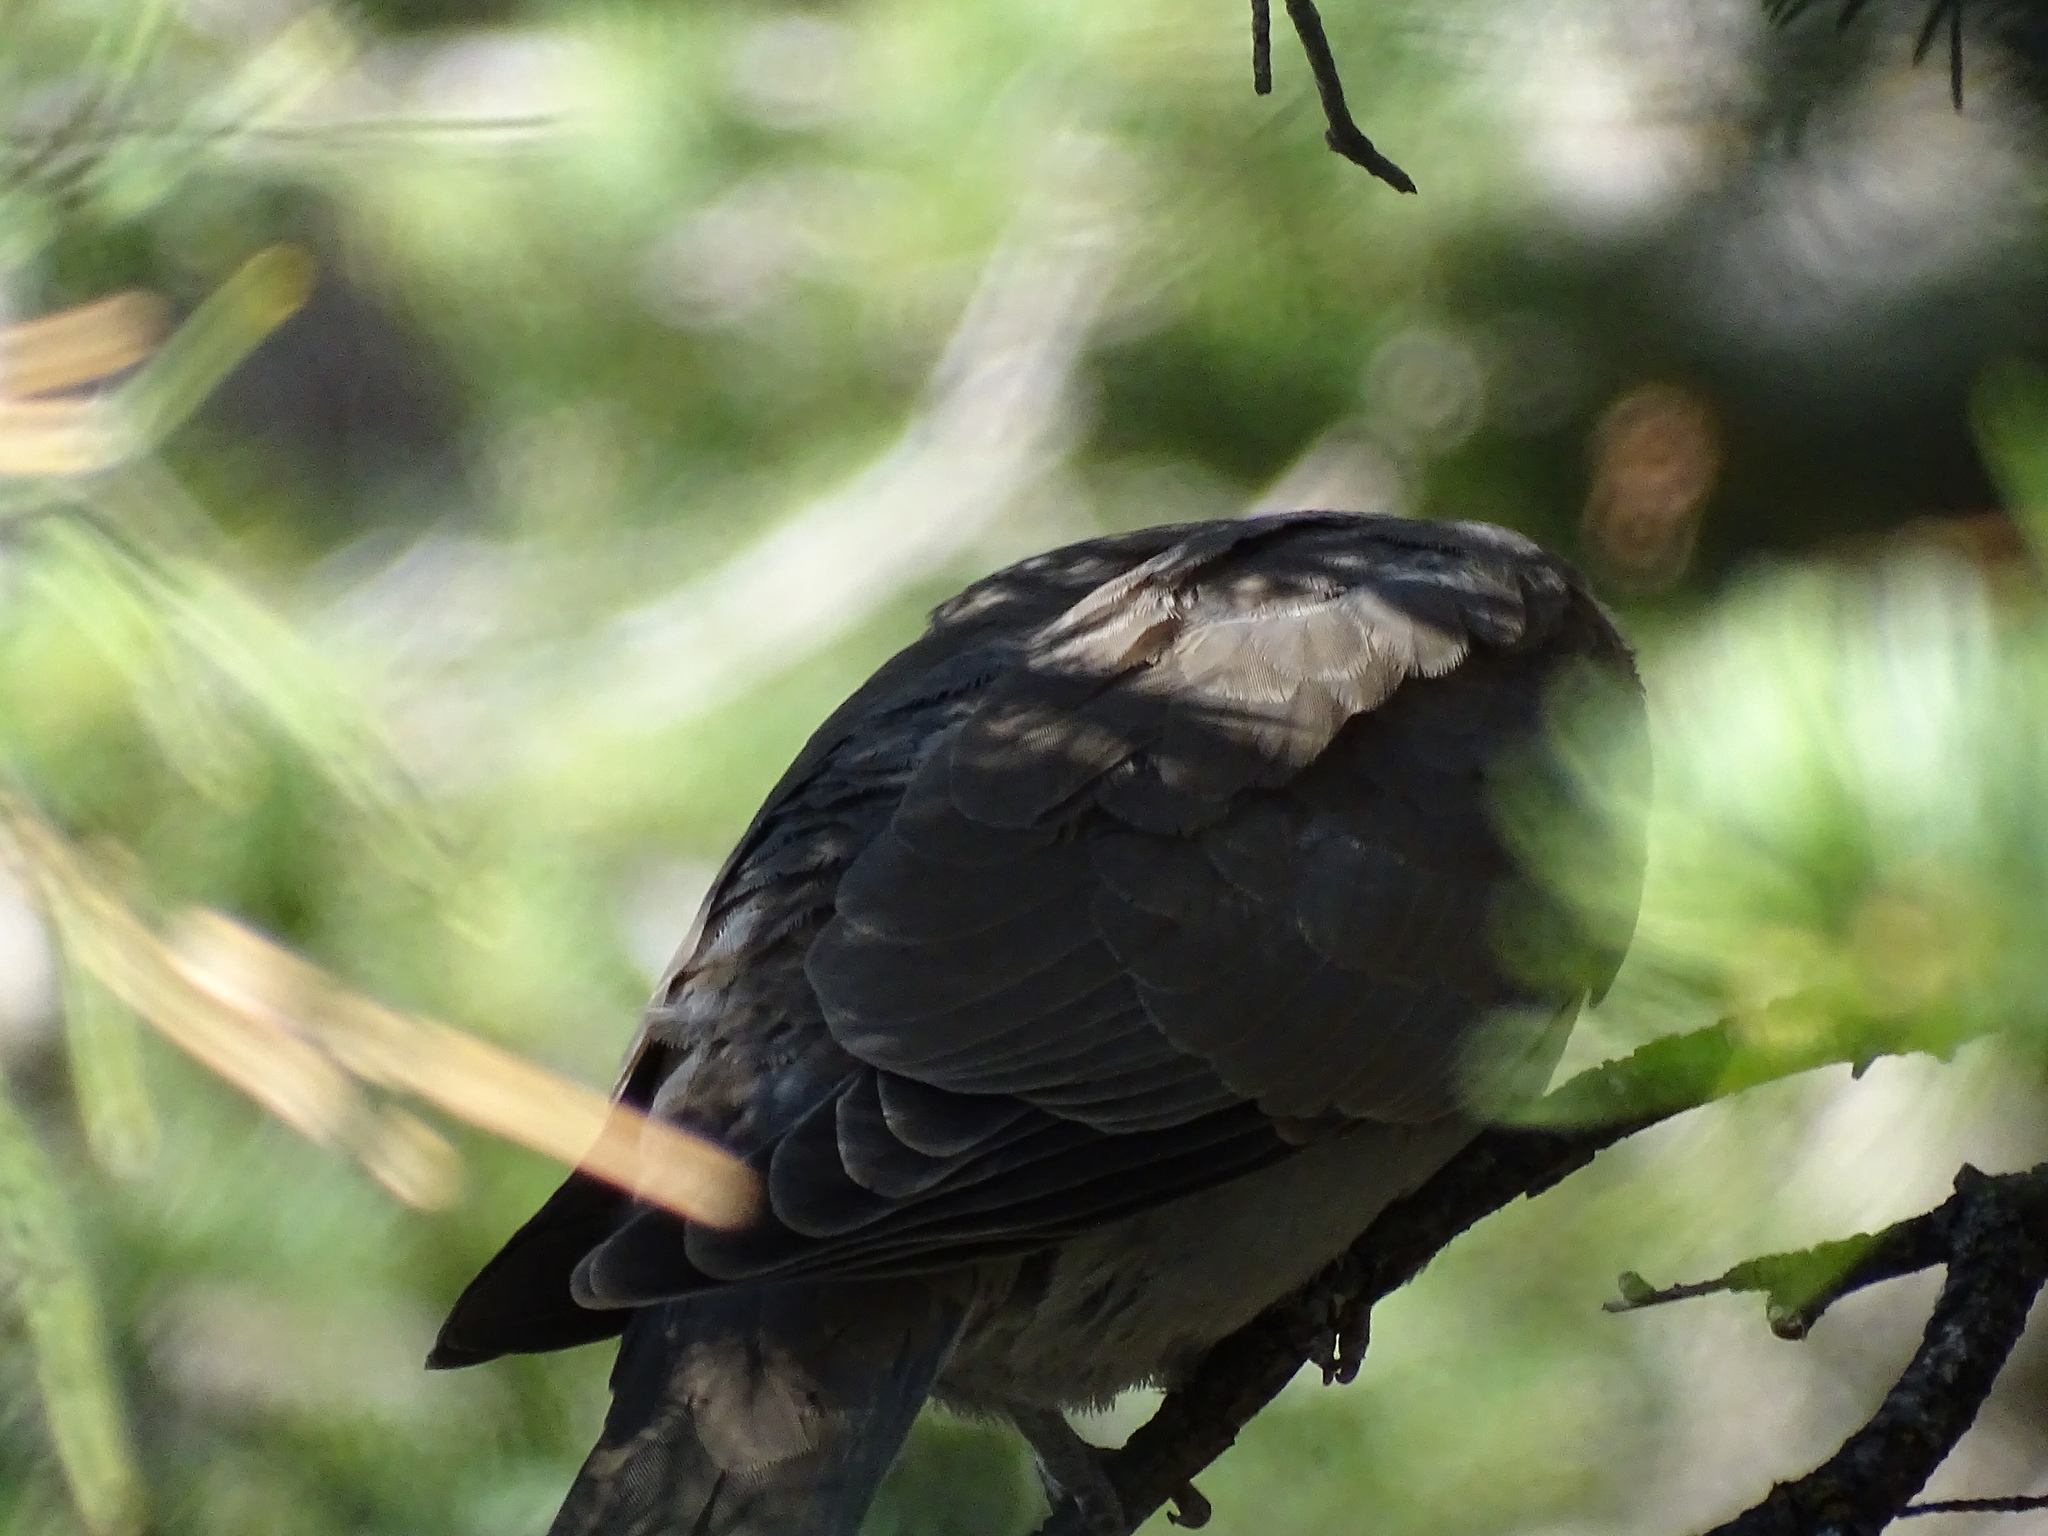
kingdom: Animalia
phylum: Chordata
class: Aves
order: Columbiformes
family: Columbidae
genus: Streptopelia
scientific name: Streptopelia decaocto
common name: Eurasian collared dove
